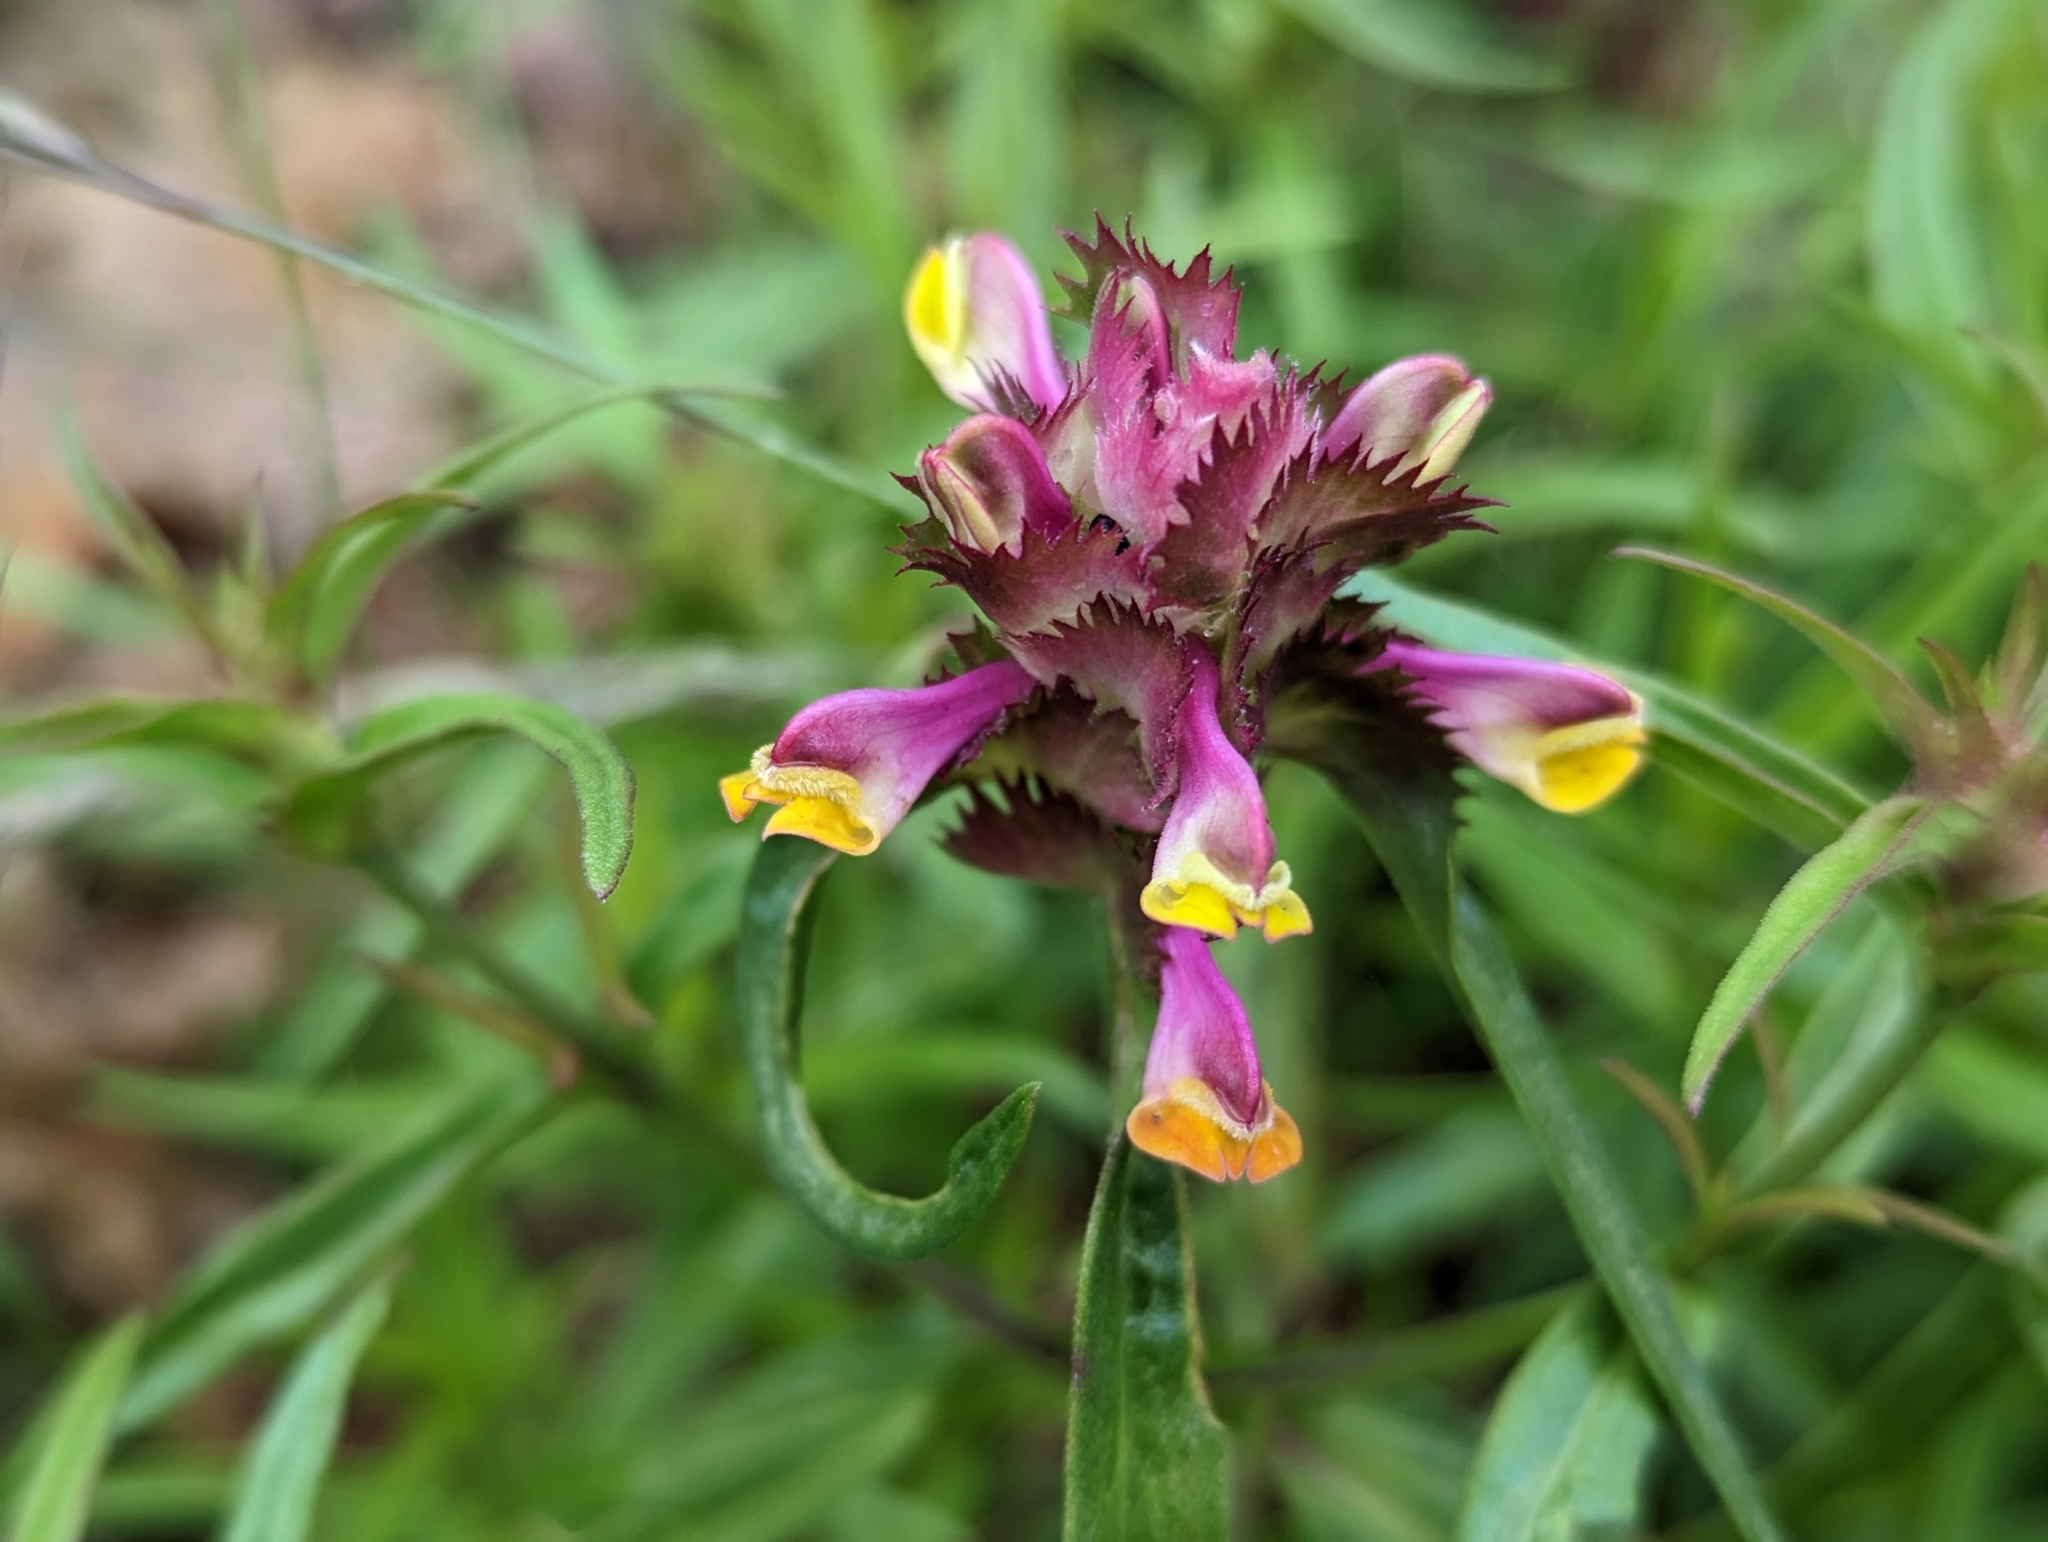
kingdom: Plantae
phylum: Tracheophyta
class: Magnoliopsida
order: Lamiales
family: Orobanchaceae
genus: Melampyrum
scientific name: Melampyrum cristatum
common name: Crested cow-wheat
